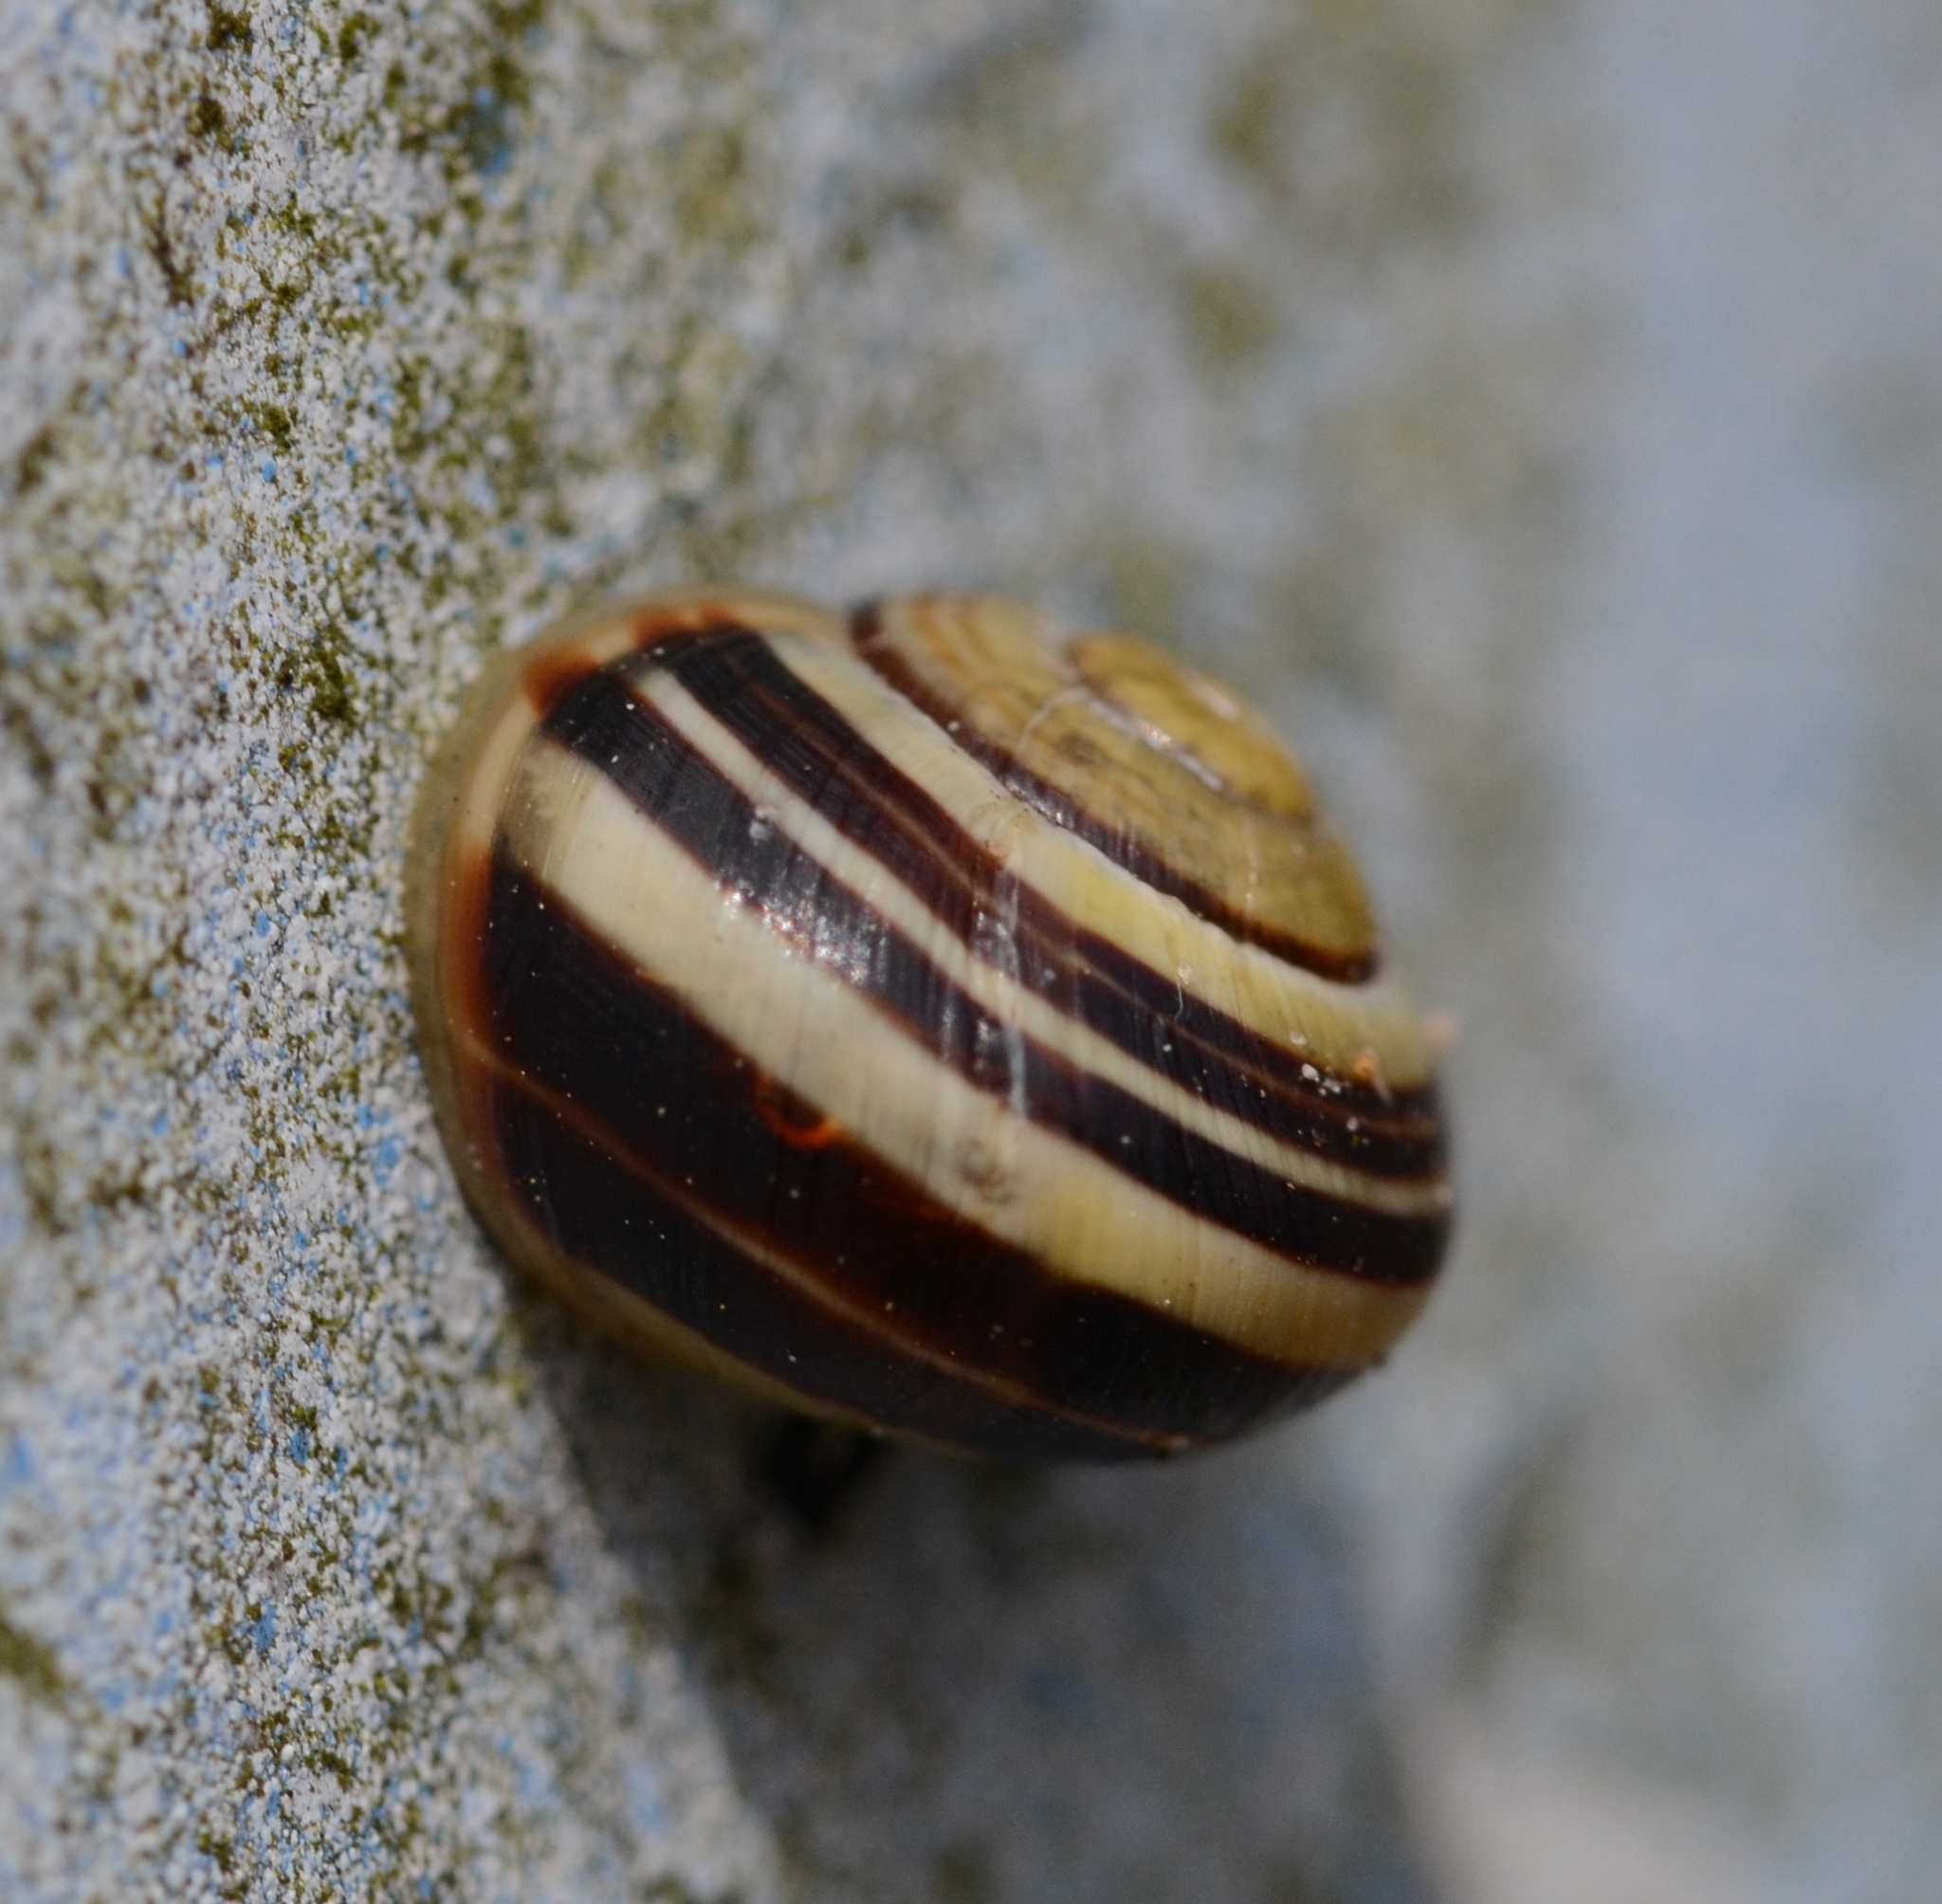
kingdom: Animalia
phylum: Mollusca
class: Gastropoda
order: Stylommatophora
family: Helicidae
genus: Cepaea
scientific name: Cepaea
